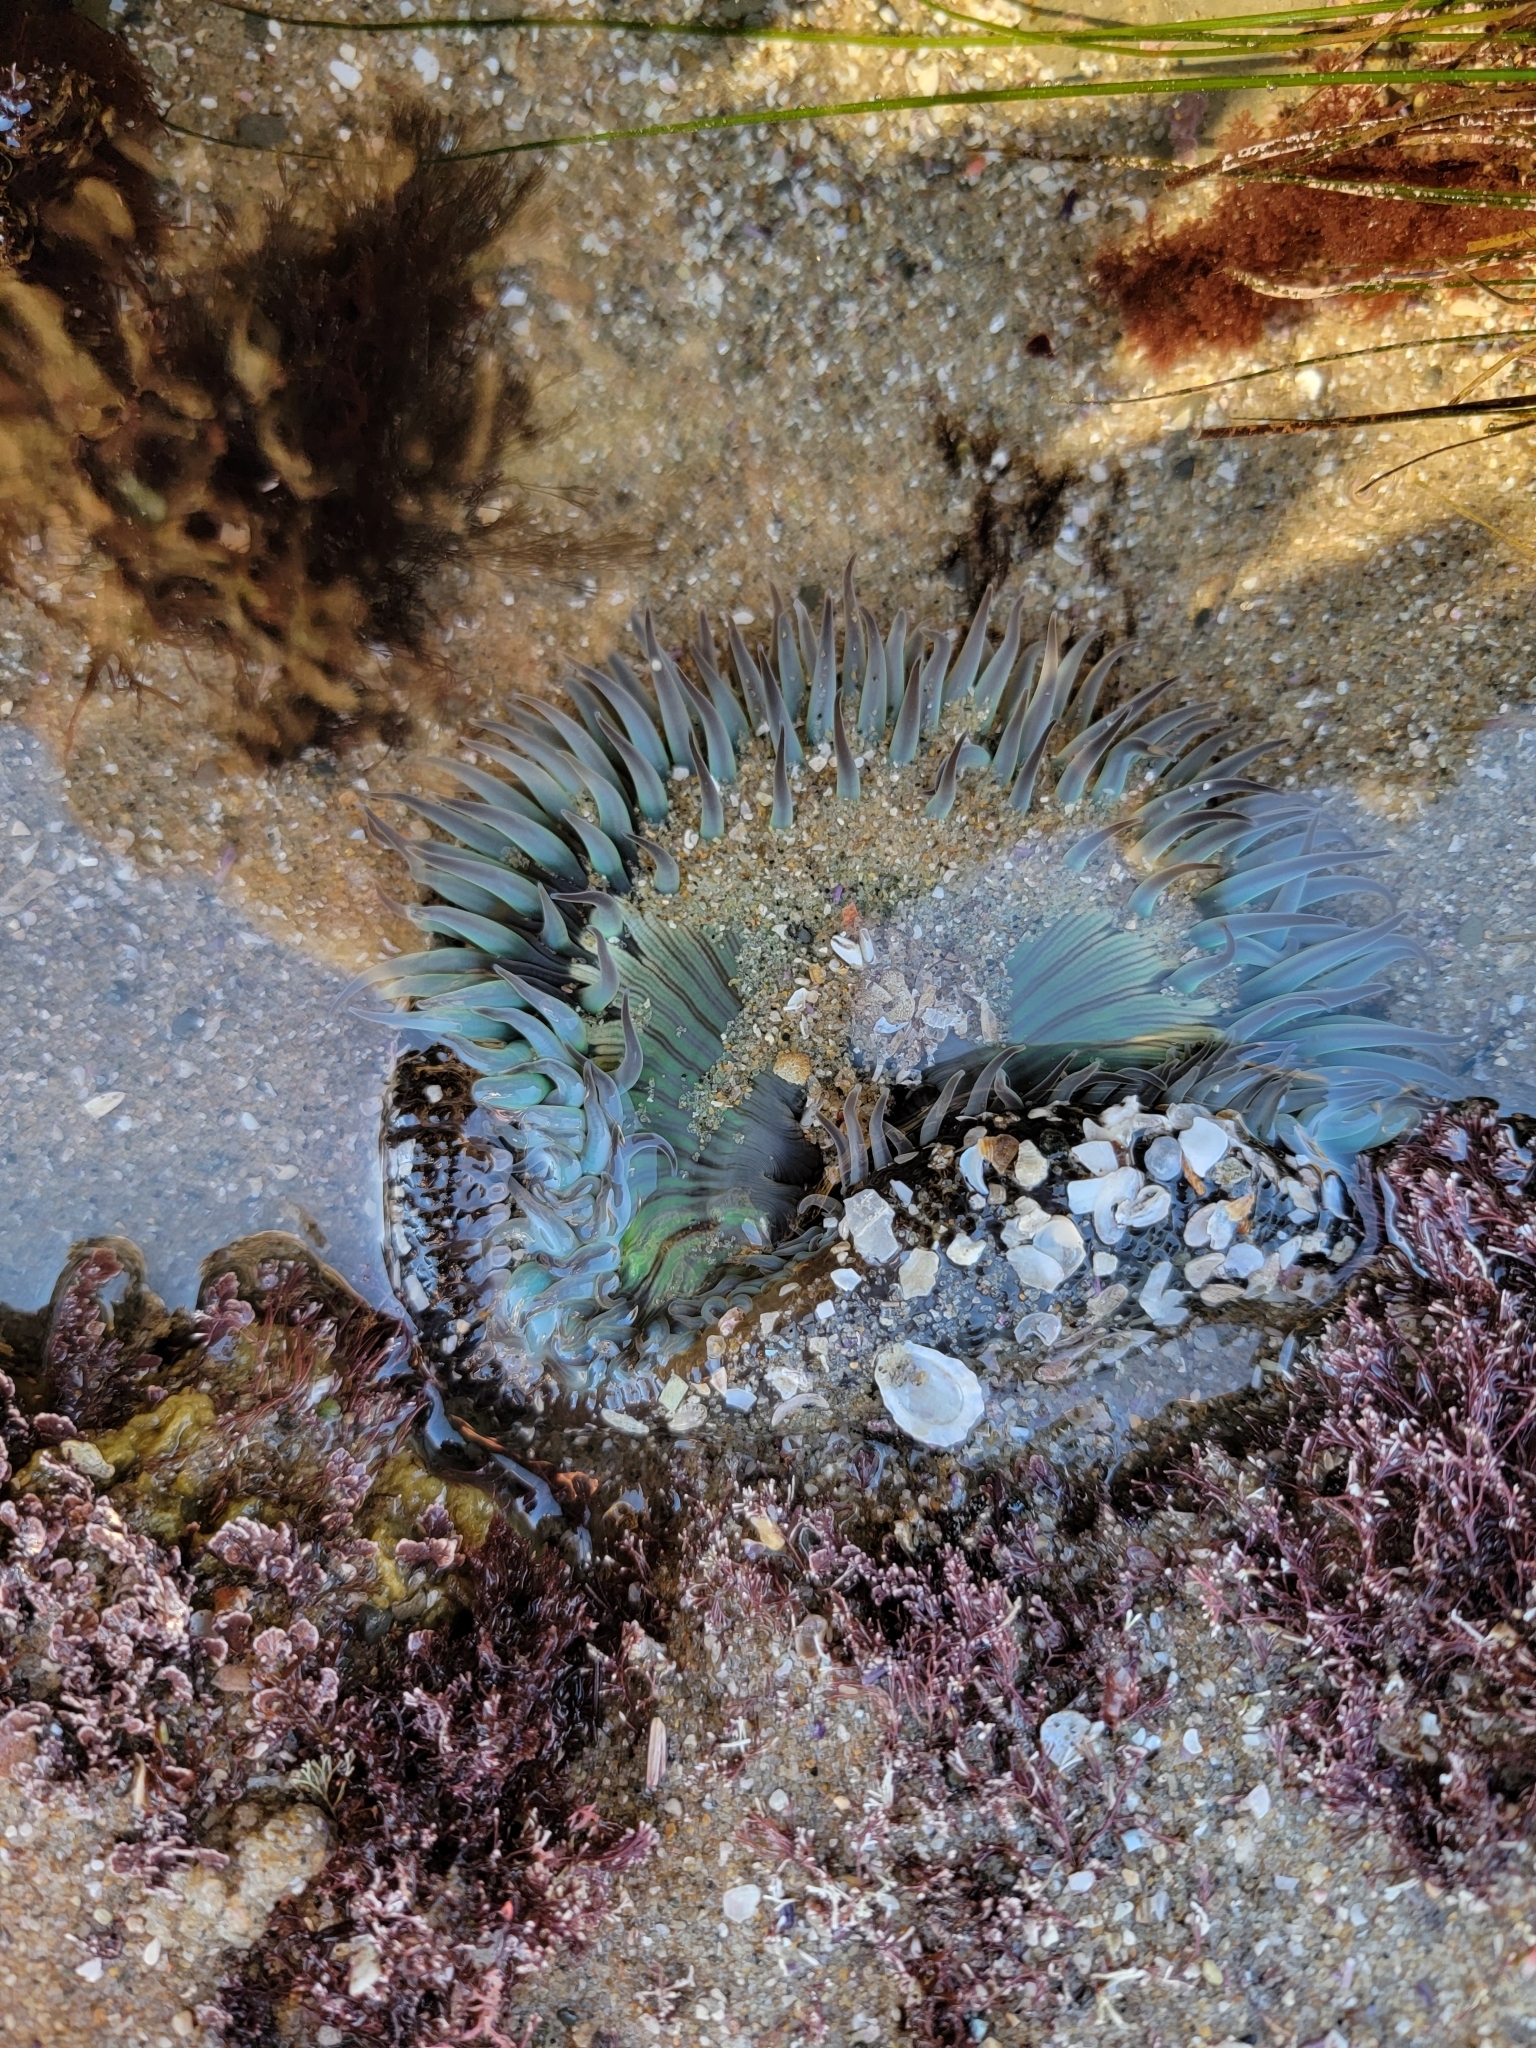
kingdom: Animalia
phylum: Cnidaria
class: Anthozoa
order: Actiniaria
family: Actiniidae
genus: Anthopleura
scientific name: Anthopleura sola
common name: Sun anemone
